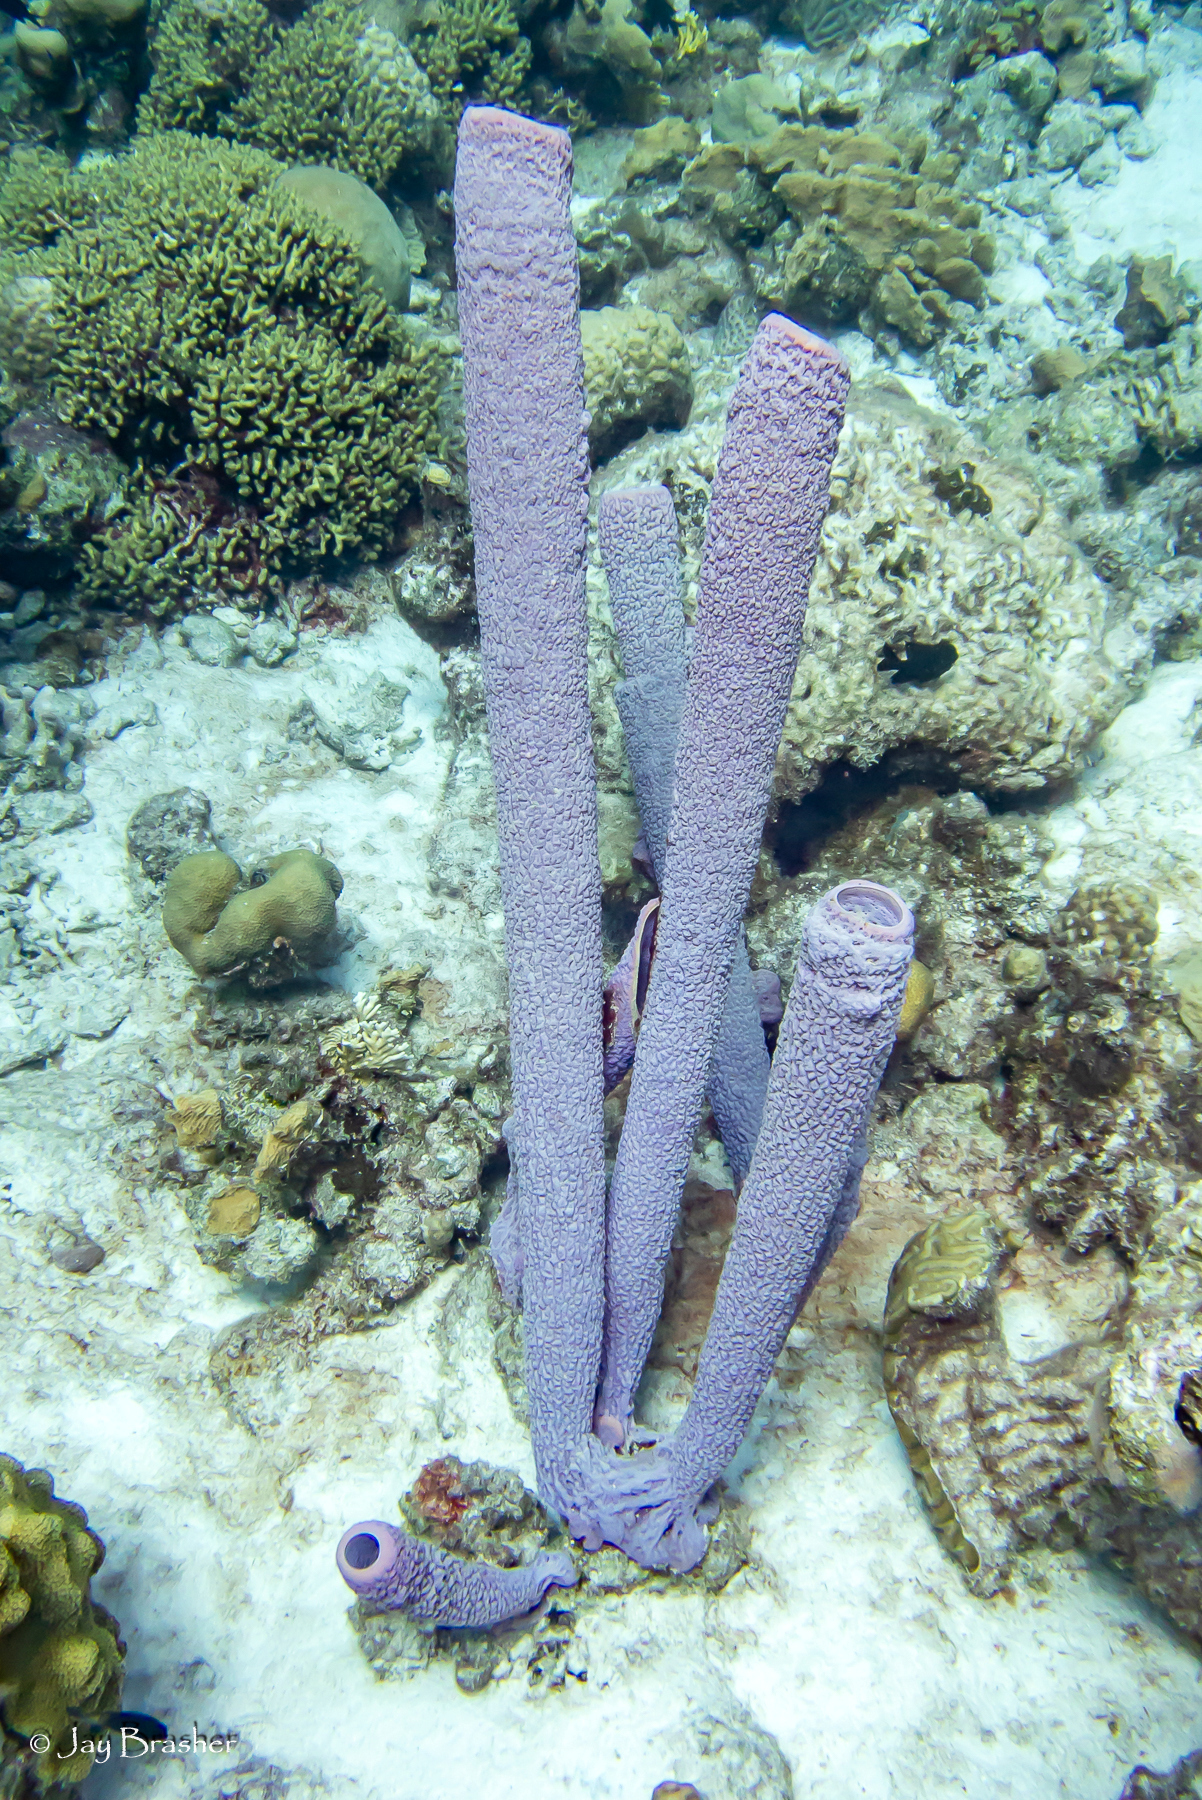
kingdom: Animalia
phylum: Porifera
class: Demospongiae
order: Verongiida
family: Aplysinidae
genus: Aplysina
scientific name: Aplysina archeri
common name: Stove-pipe sponge
